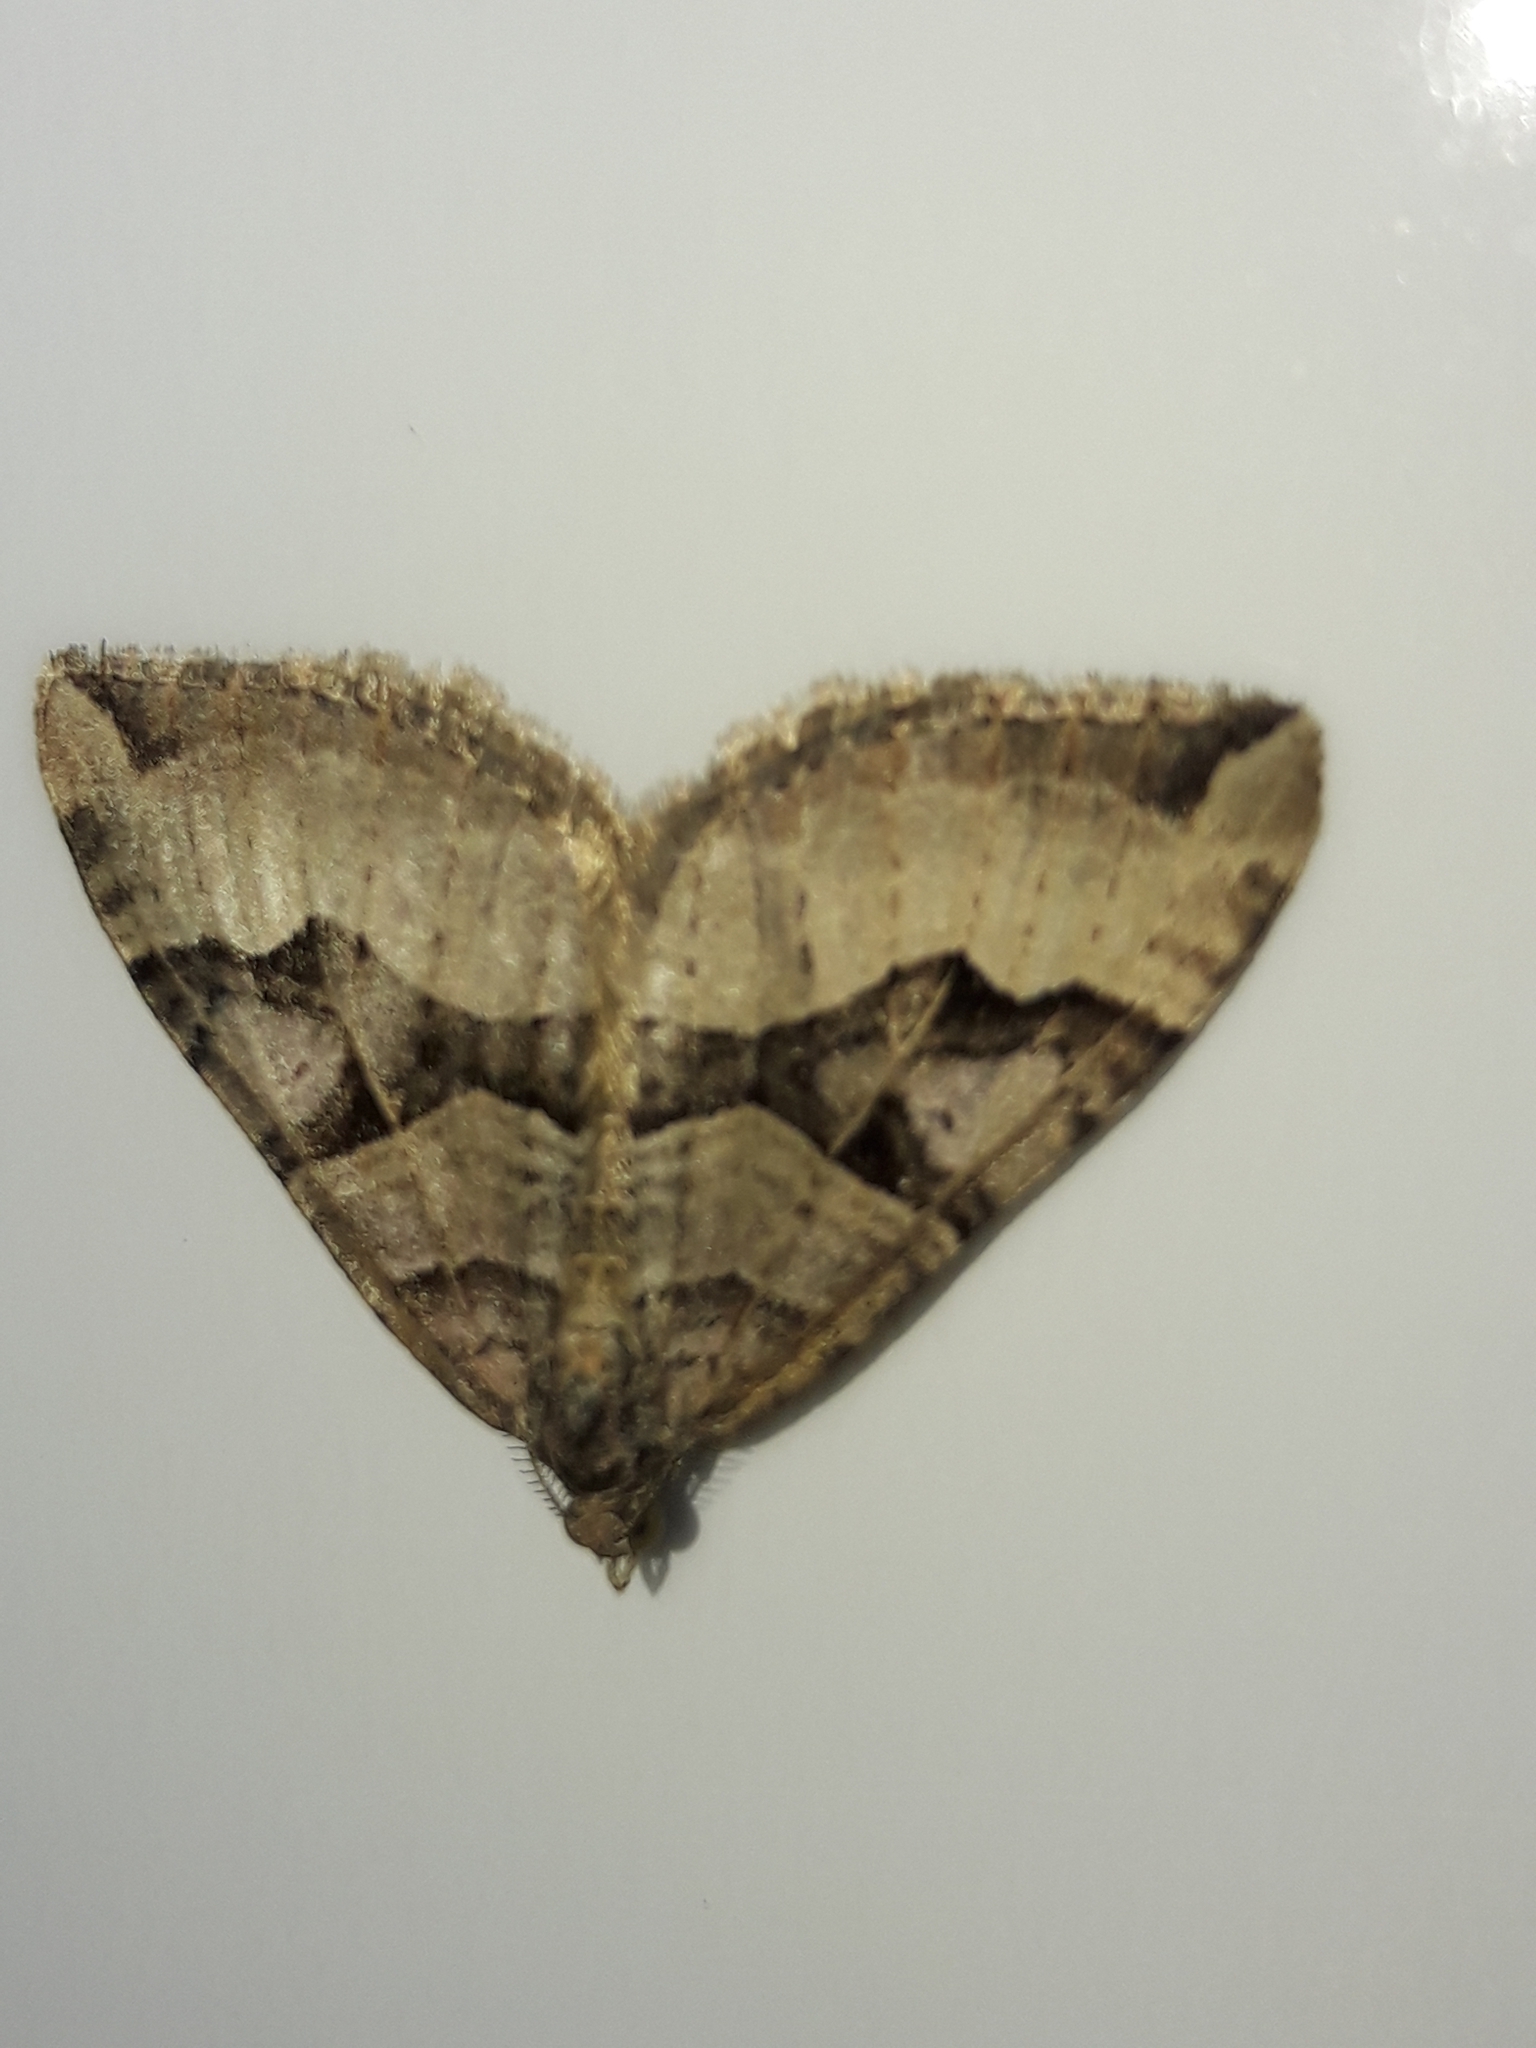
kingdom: Animalia
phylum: Arthropoda
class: Insecta
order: Lepidoptera
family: Geometridae
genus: Xanthorhoe
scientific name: Xanthorhoe semifissata
